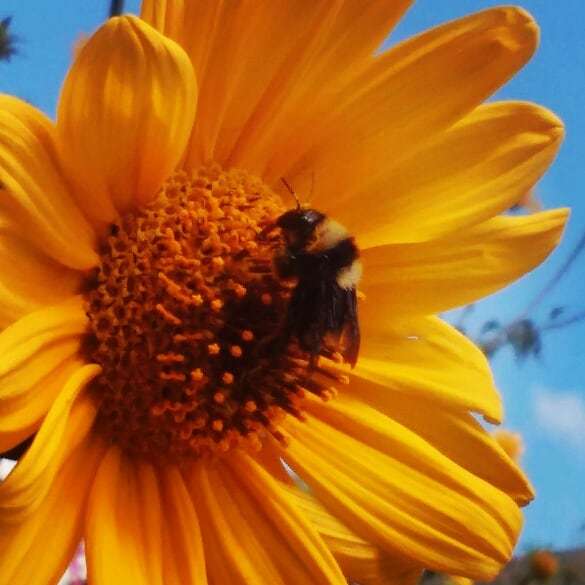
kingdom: Animalia
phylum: Arthropoda
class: Insecta
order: Hymenoptera
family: Apidae
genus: Bombus
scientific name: Bombus sonorus
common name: Sonoran bumble bee
